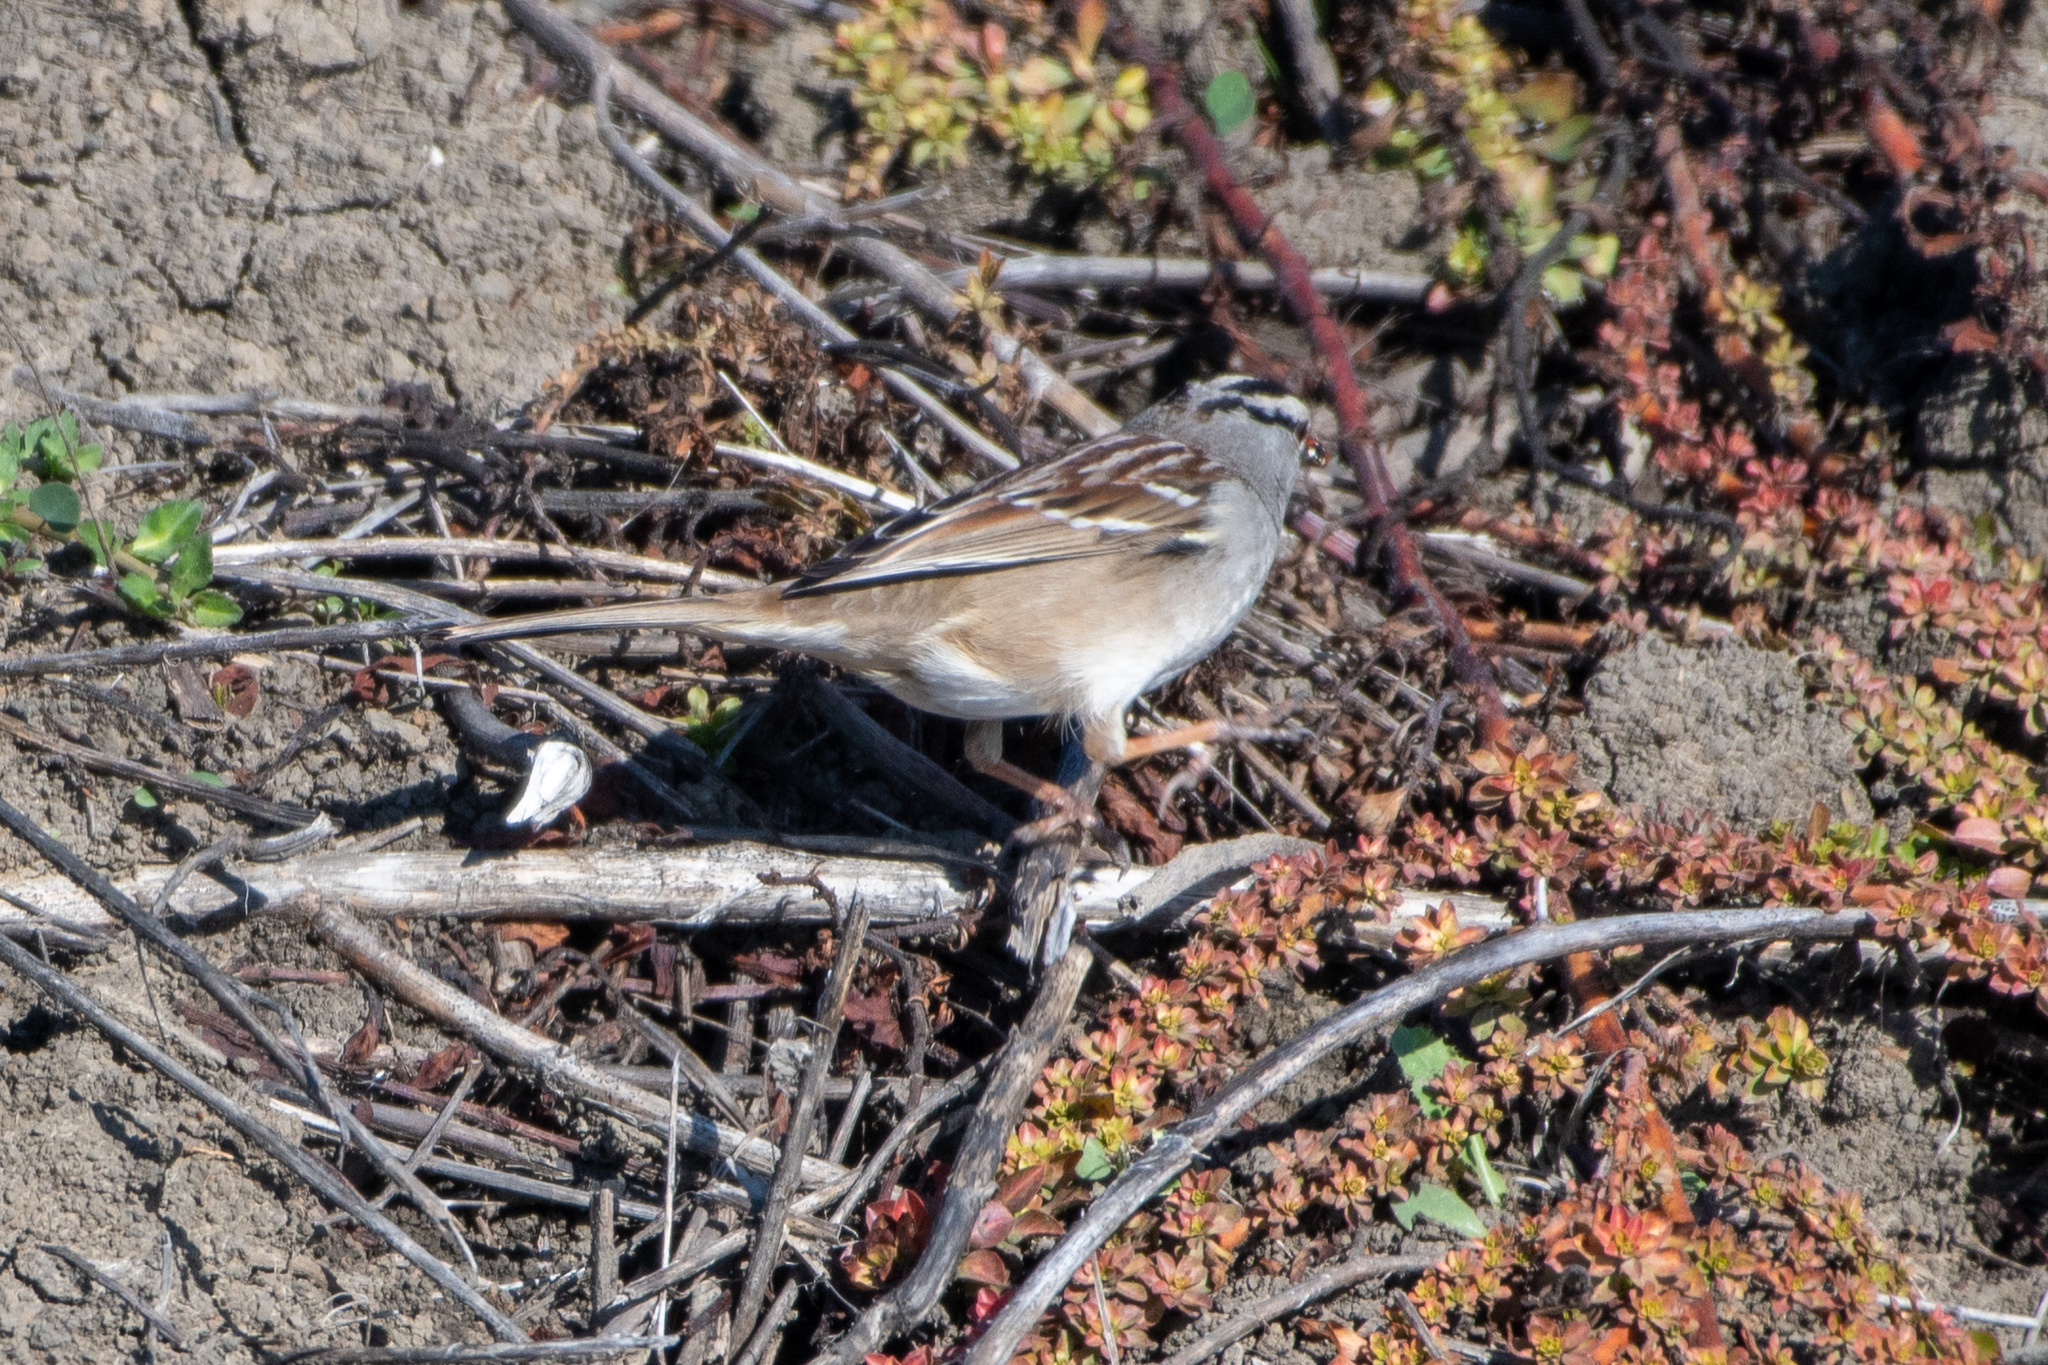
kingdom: Animalia
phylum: Chordata
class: Aves
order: Passeriformes
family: Passerellidae
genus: Zonotrichia
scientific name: Zonotrichia leucophrys
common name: White-crowned sparrow
